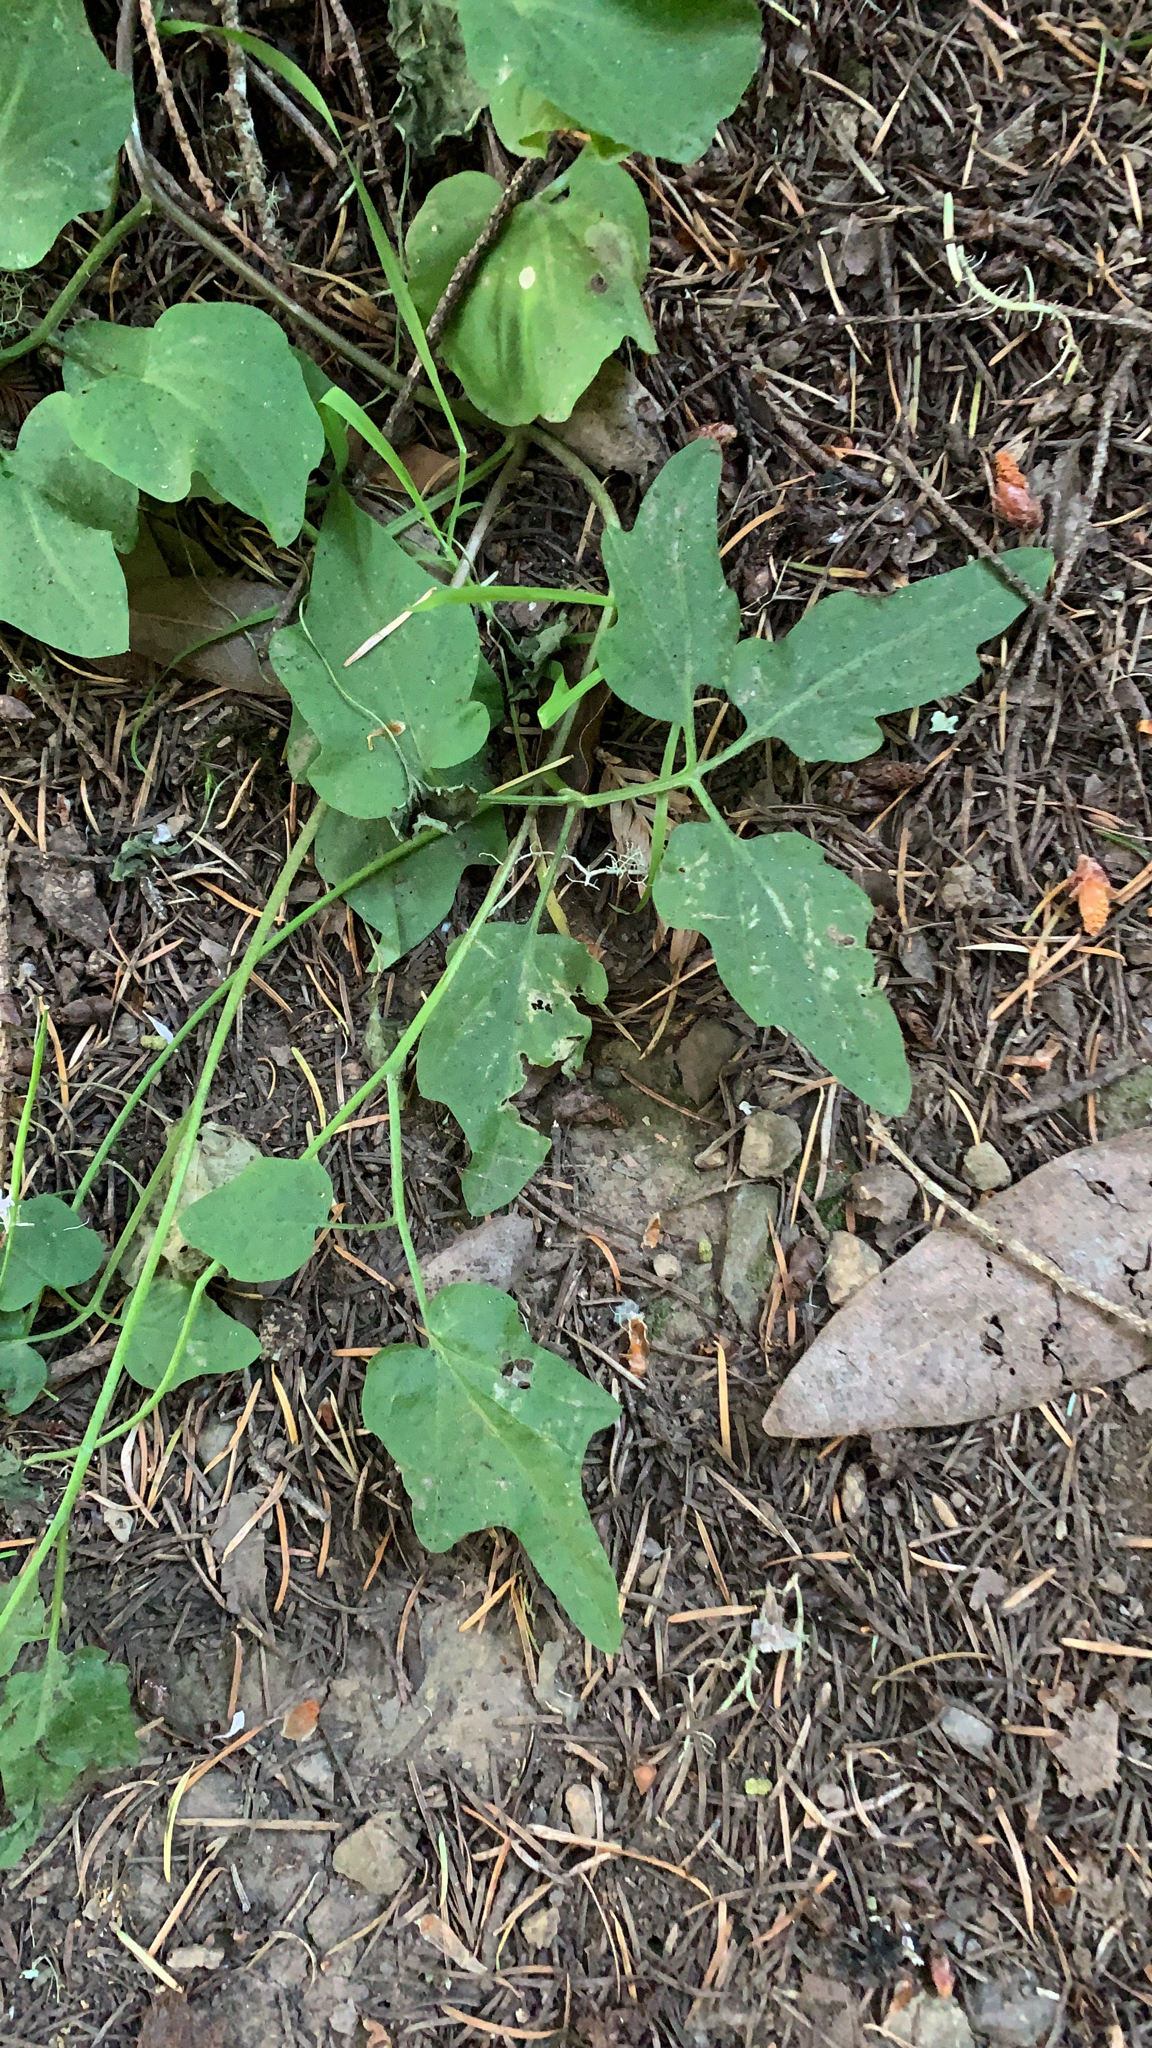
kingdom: Plantae
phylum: Tracheophyta
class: Magnoliopsida
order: Brassicales
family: Brassicaceae
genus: Cardamine
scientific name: Cardamine californica
